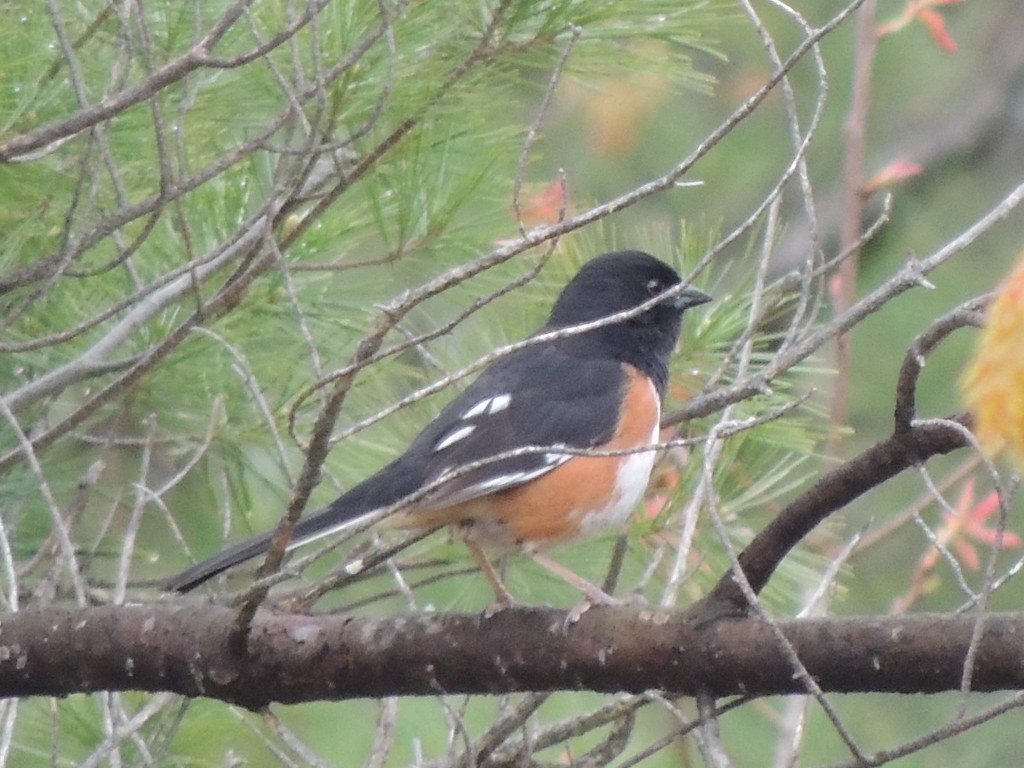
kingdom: Animalia
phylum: Chordata
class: Aves
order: Passeriformes
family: Passerellidae
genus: Pipilo
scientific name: Pipilo erythrophthalmus
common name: Eastern towhee
